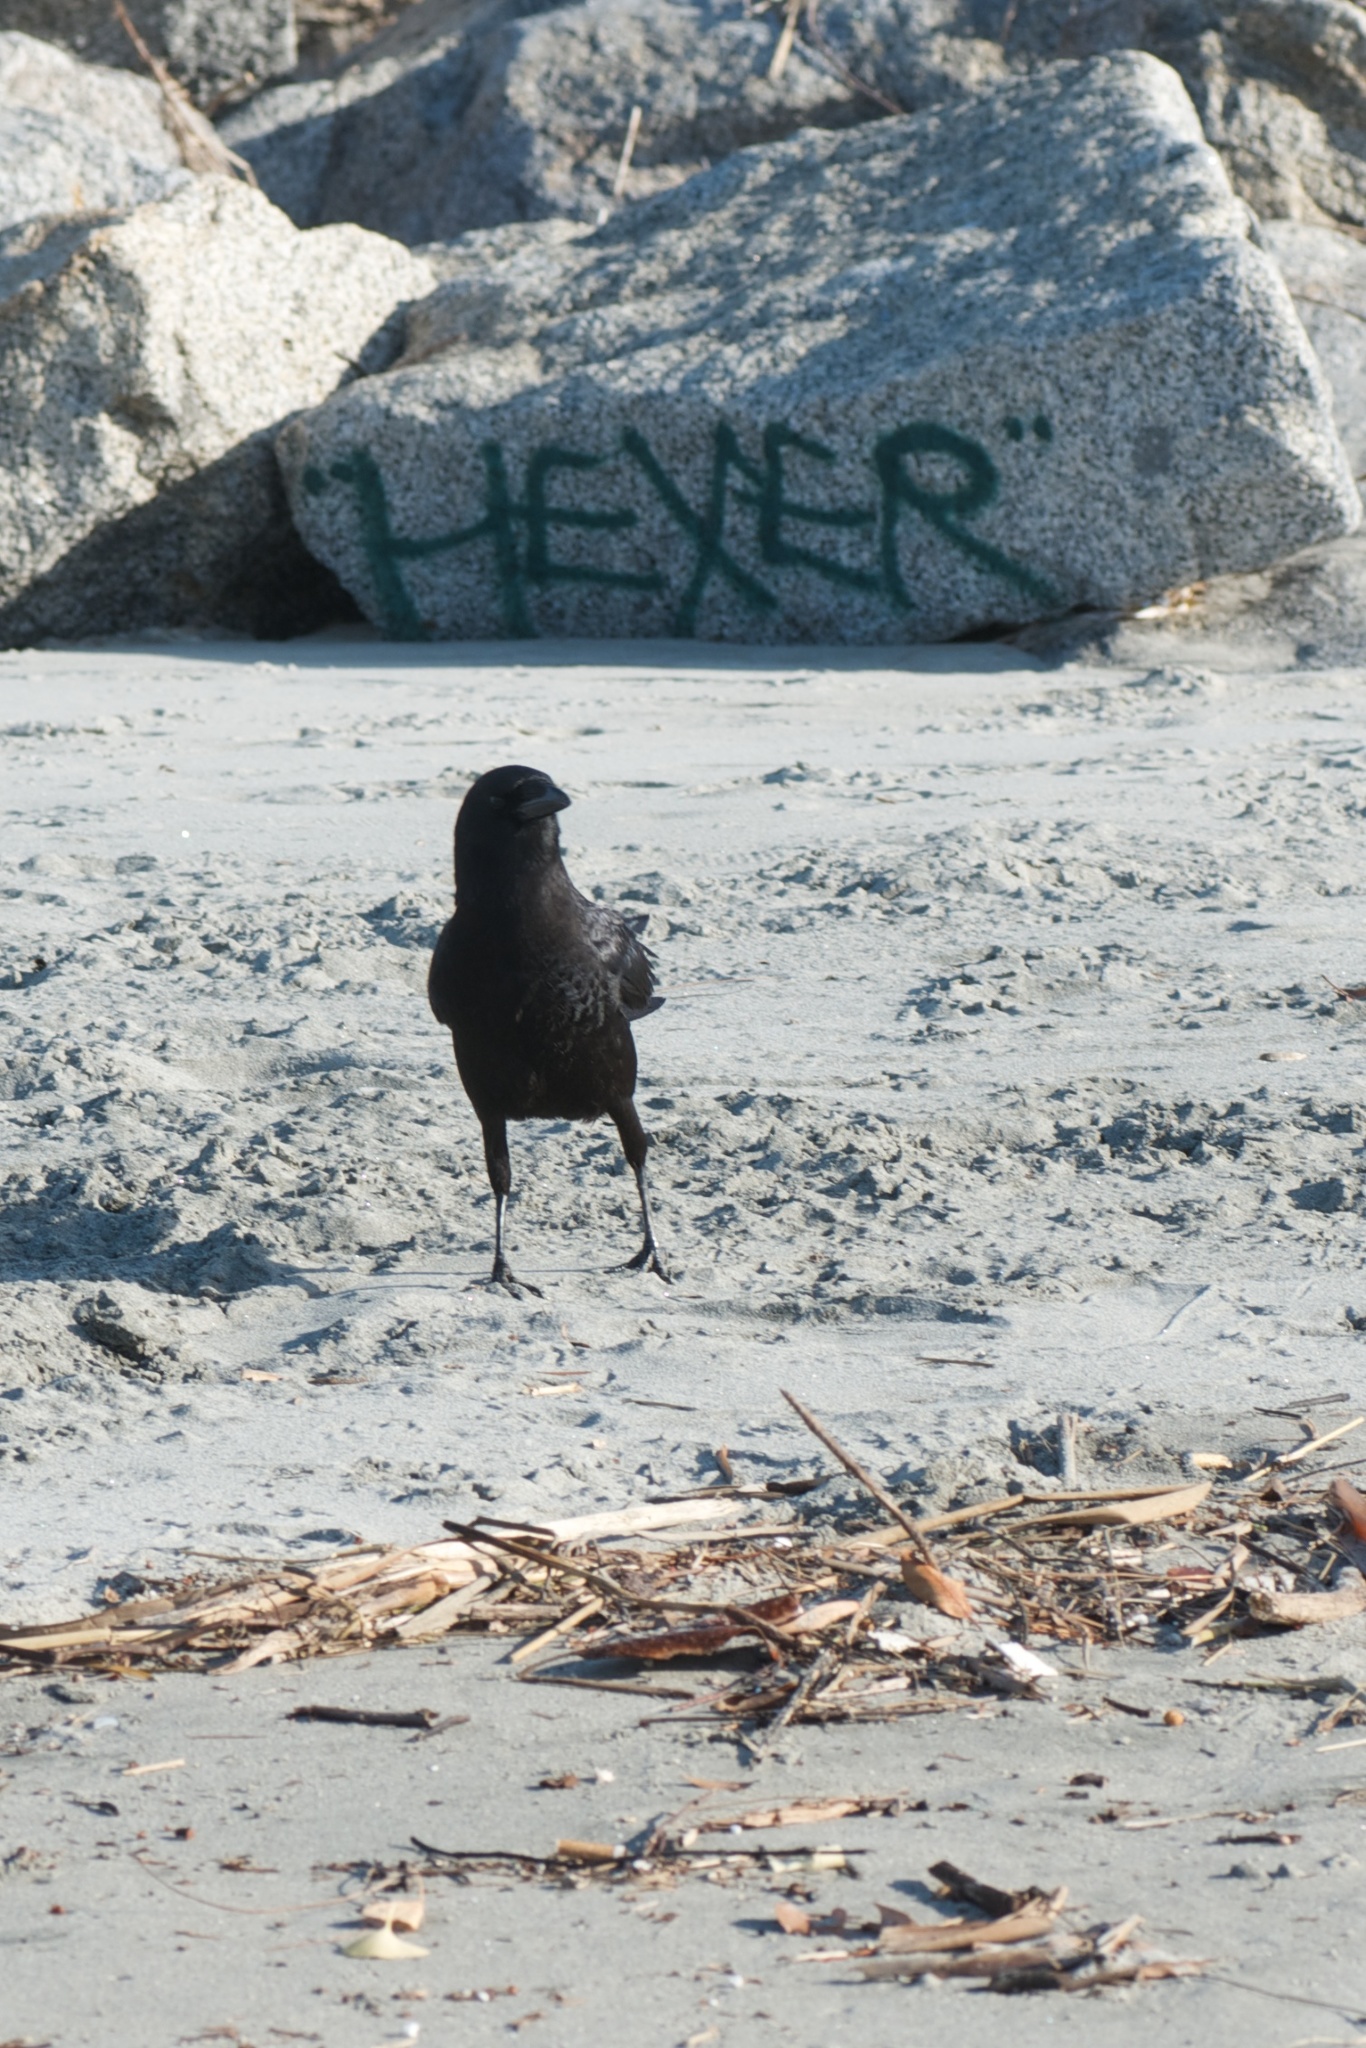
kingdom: Animalia
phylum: Chordata
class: Aves
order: Passeriformes
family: Corvidae
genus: Corvus
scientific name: Corvus brachyrhynchos
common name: American crow
